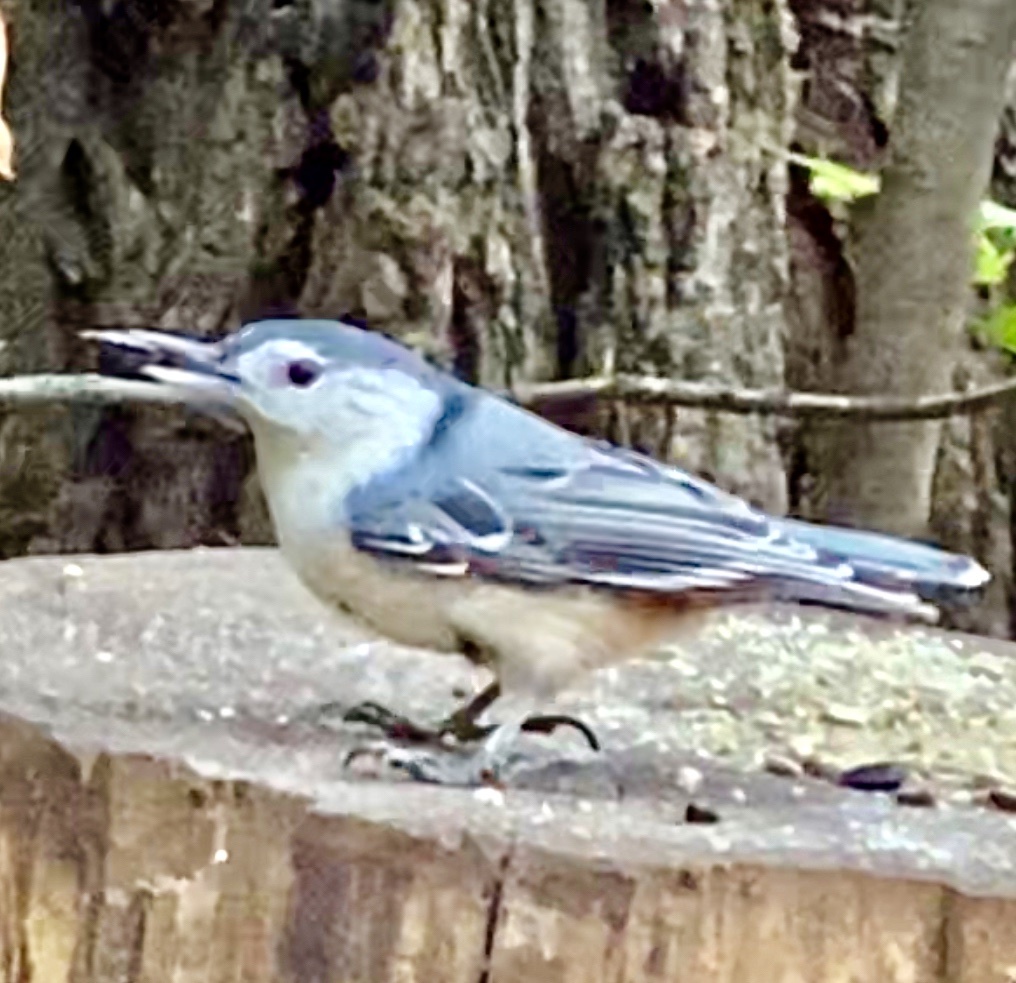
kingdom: Animalia
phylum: Chordata
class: Aves
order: Passeriformes
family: Sittidae
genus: Sitta
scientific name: Sitta carolinensis
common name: White-breasted nuthatch
